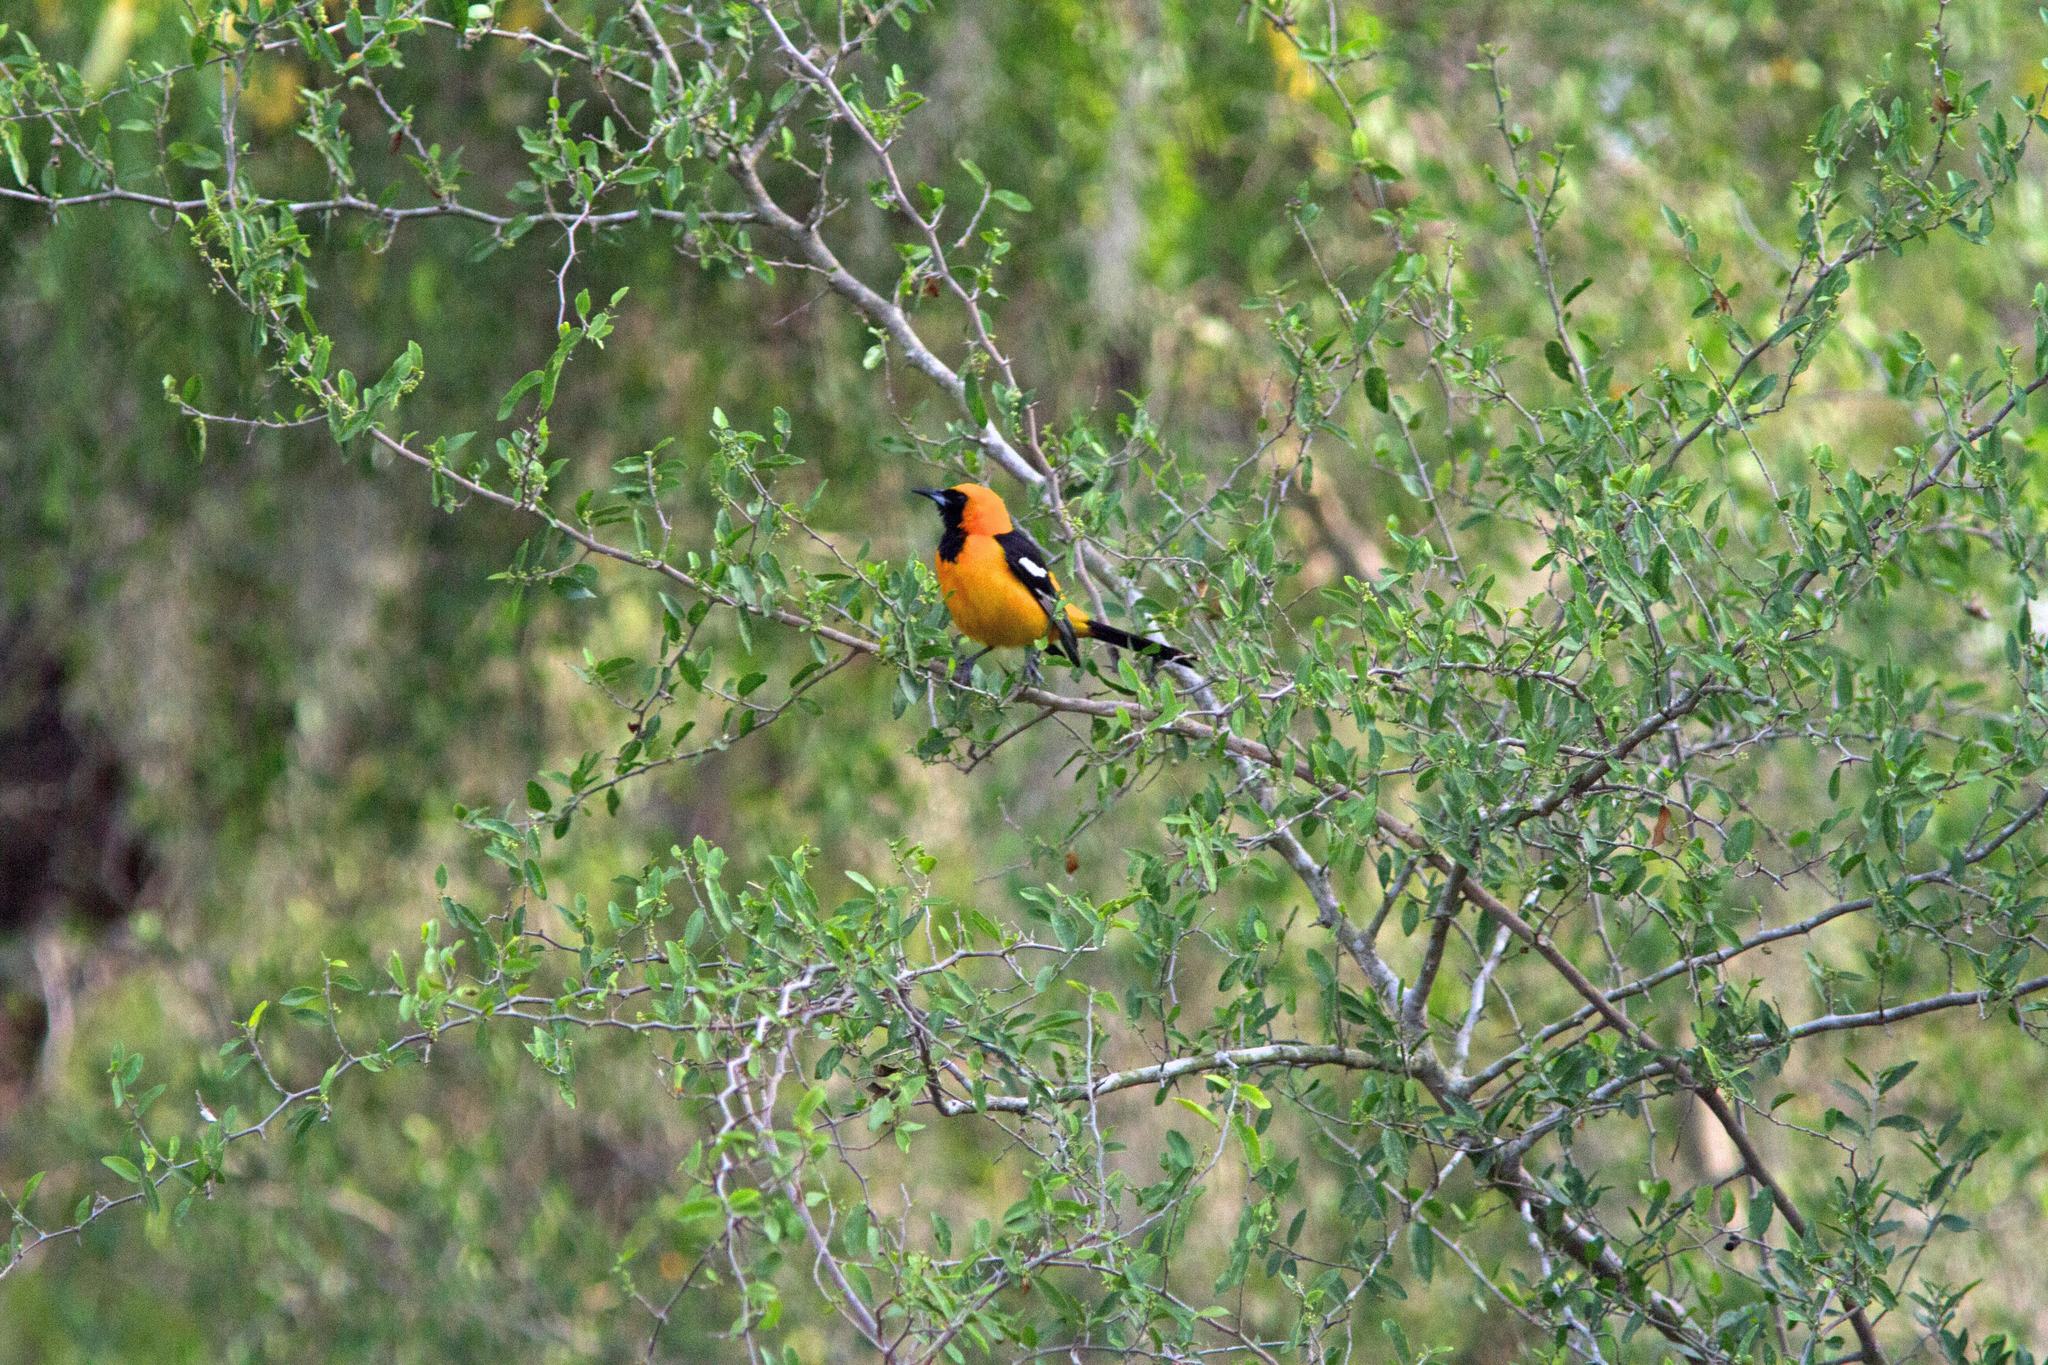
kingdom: Animalia
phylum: Chordata
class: Aves
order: Passeriformes
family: Icteridae
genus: Icterus
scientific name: Icterus cucullatus
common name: Hooded oriole
